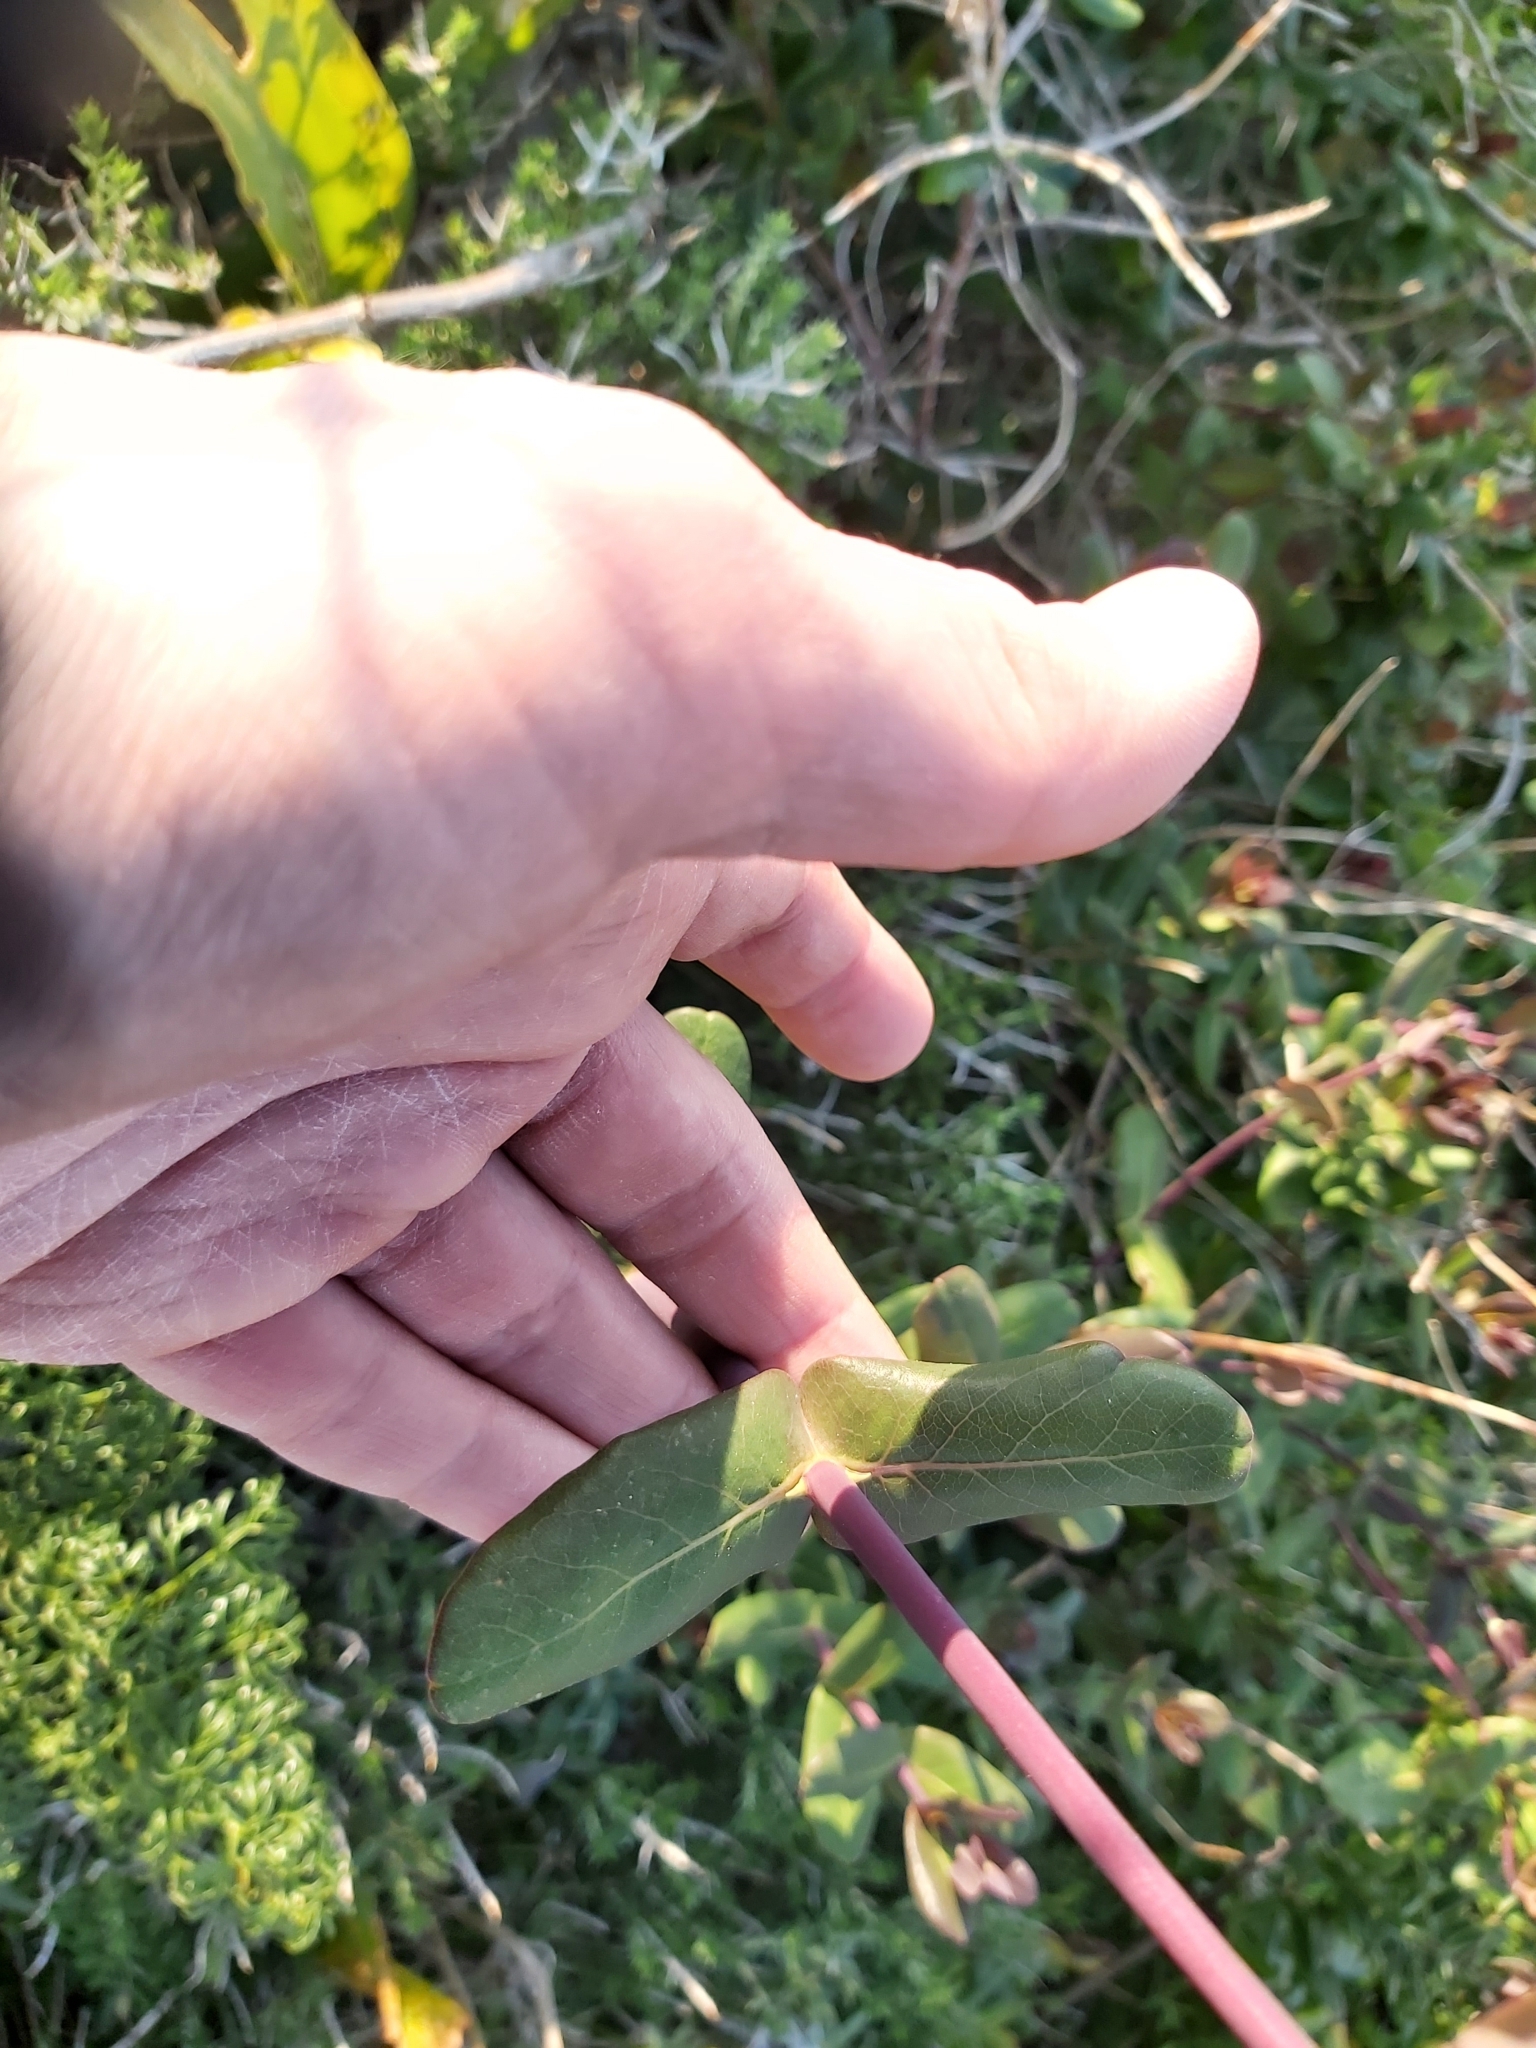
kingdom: Plantae
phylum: Tracheophyta
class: Magnoliopsida
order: Dipsacales
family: Caprifoliaceae
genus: Lonicera
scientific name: Lonicera implexa
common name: Minorca honeysuckle
